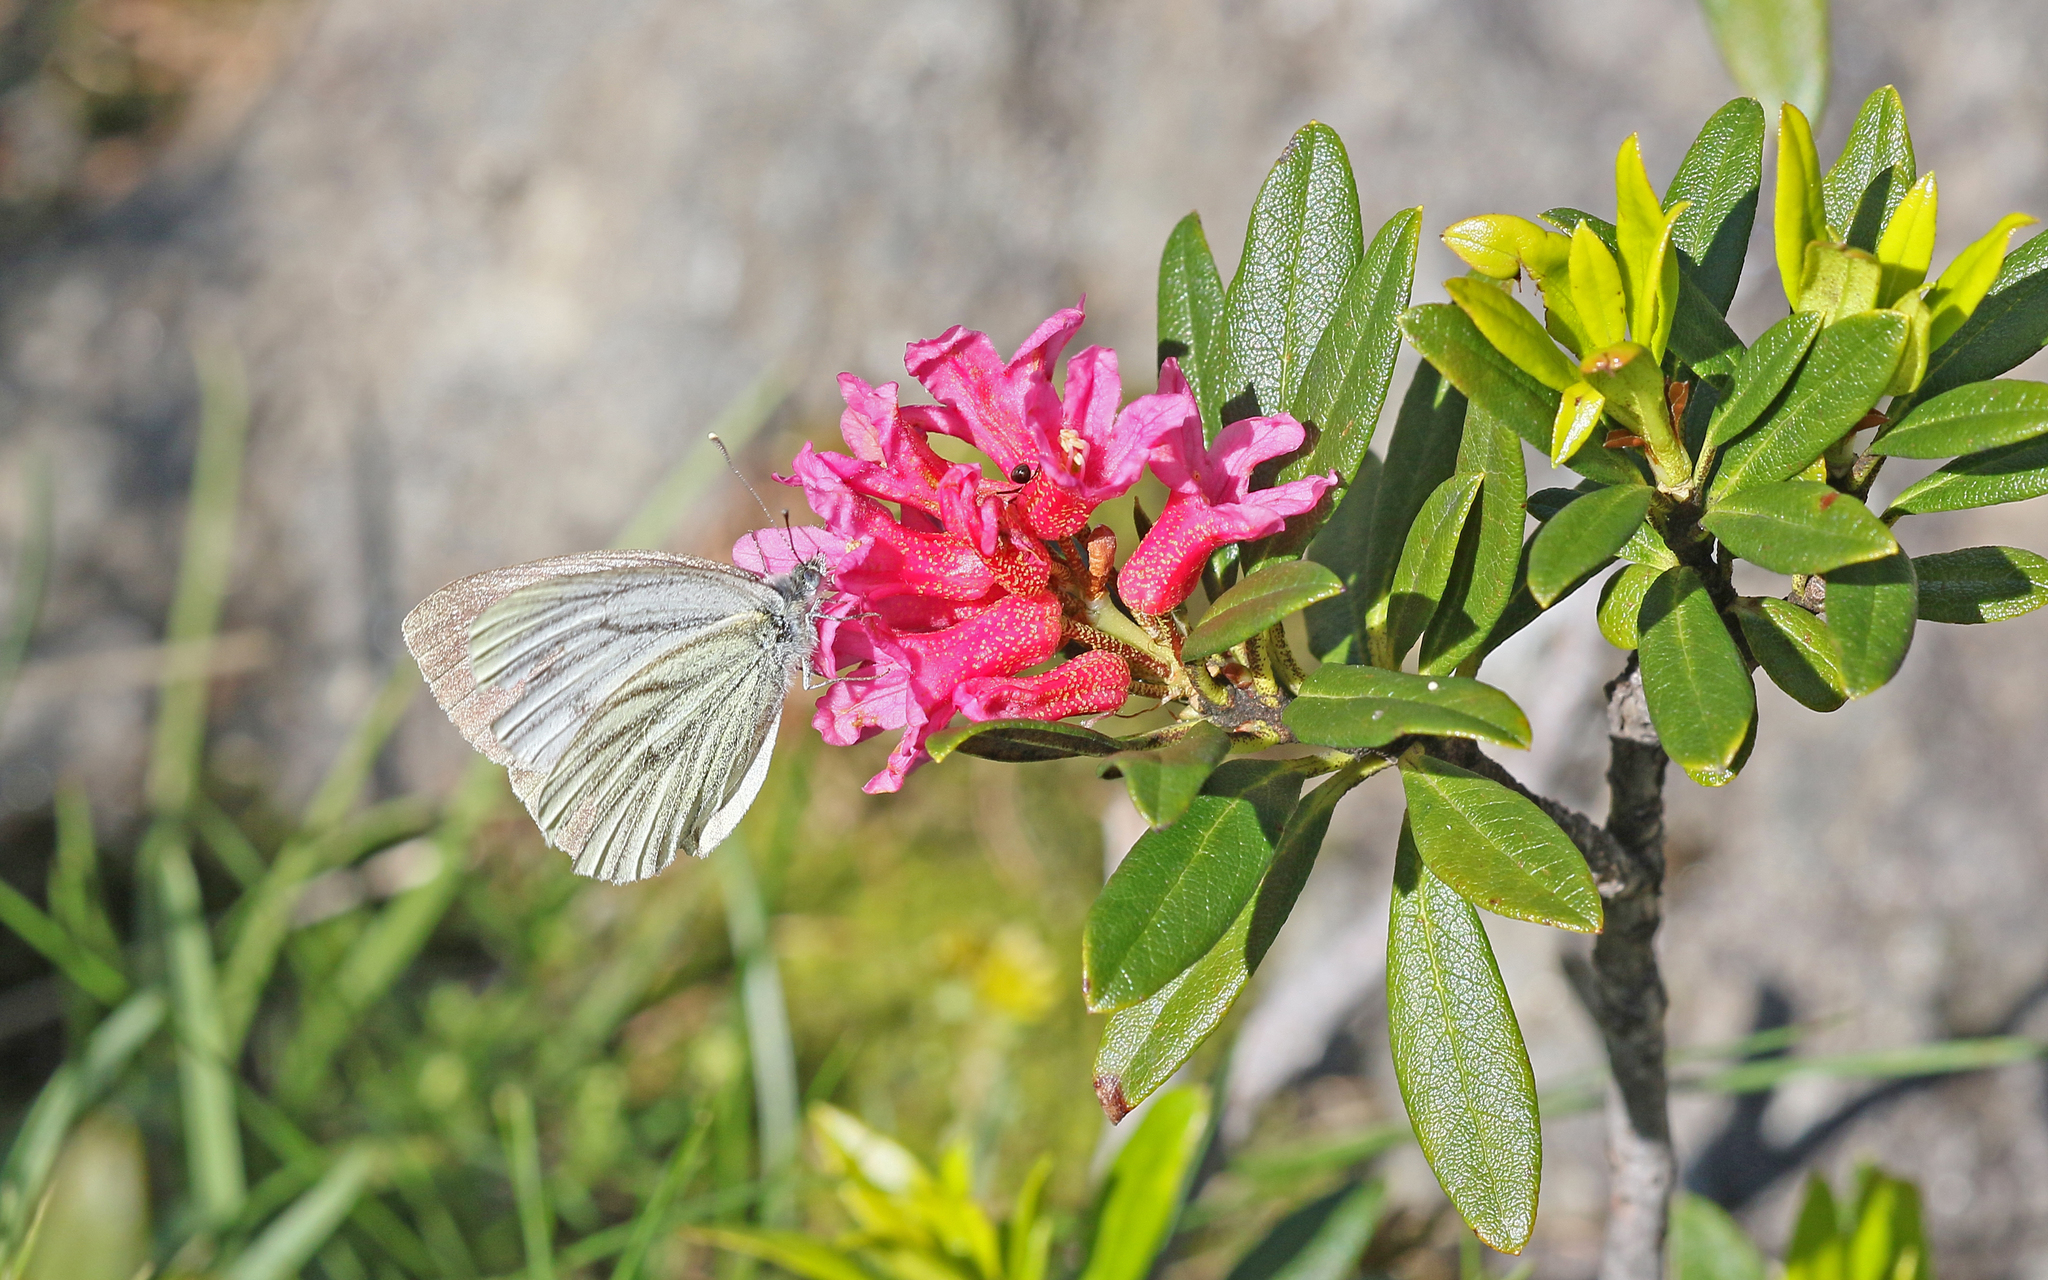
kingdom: Animalia
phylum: Arthropoda
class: Insecta
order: Lepidoptera
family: Pieridae
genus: Pieris
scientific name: Pieris bryoniae
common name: Mountain green-veined white
